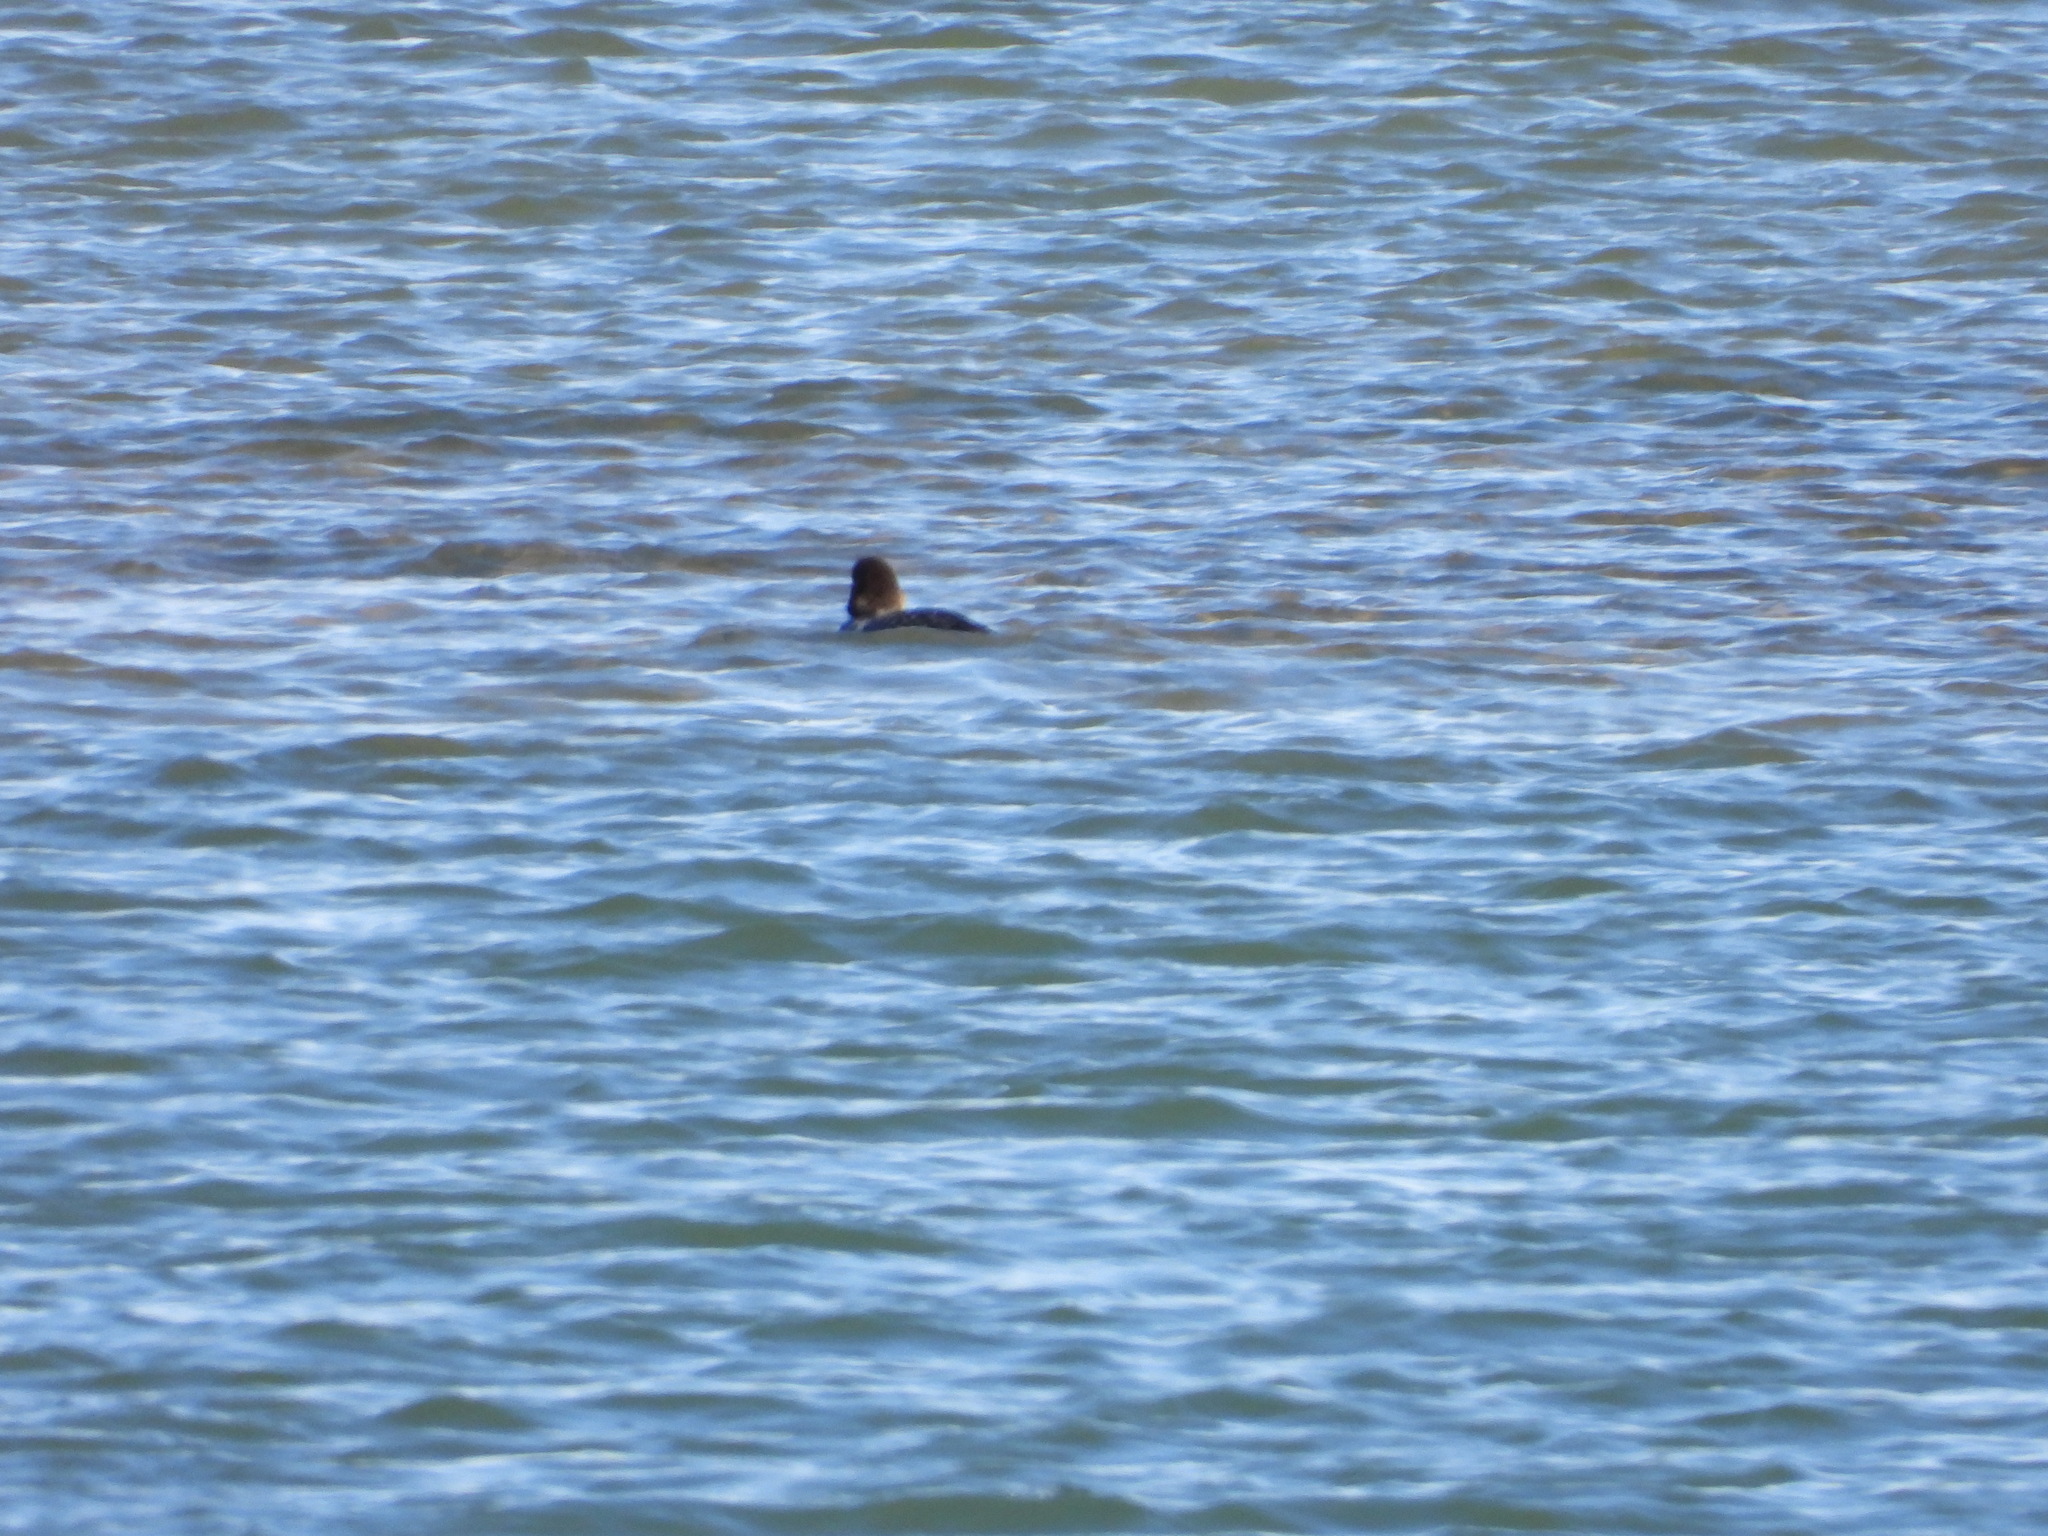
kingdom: Animalia
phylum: Chordata
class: Aves
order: Anseriformes
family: Anatidae
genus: Bucephala
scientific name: Bucephala clangula
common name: Common goldeneye
